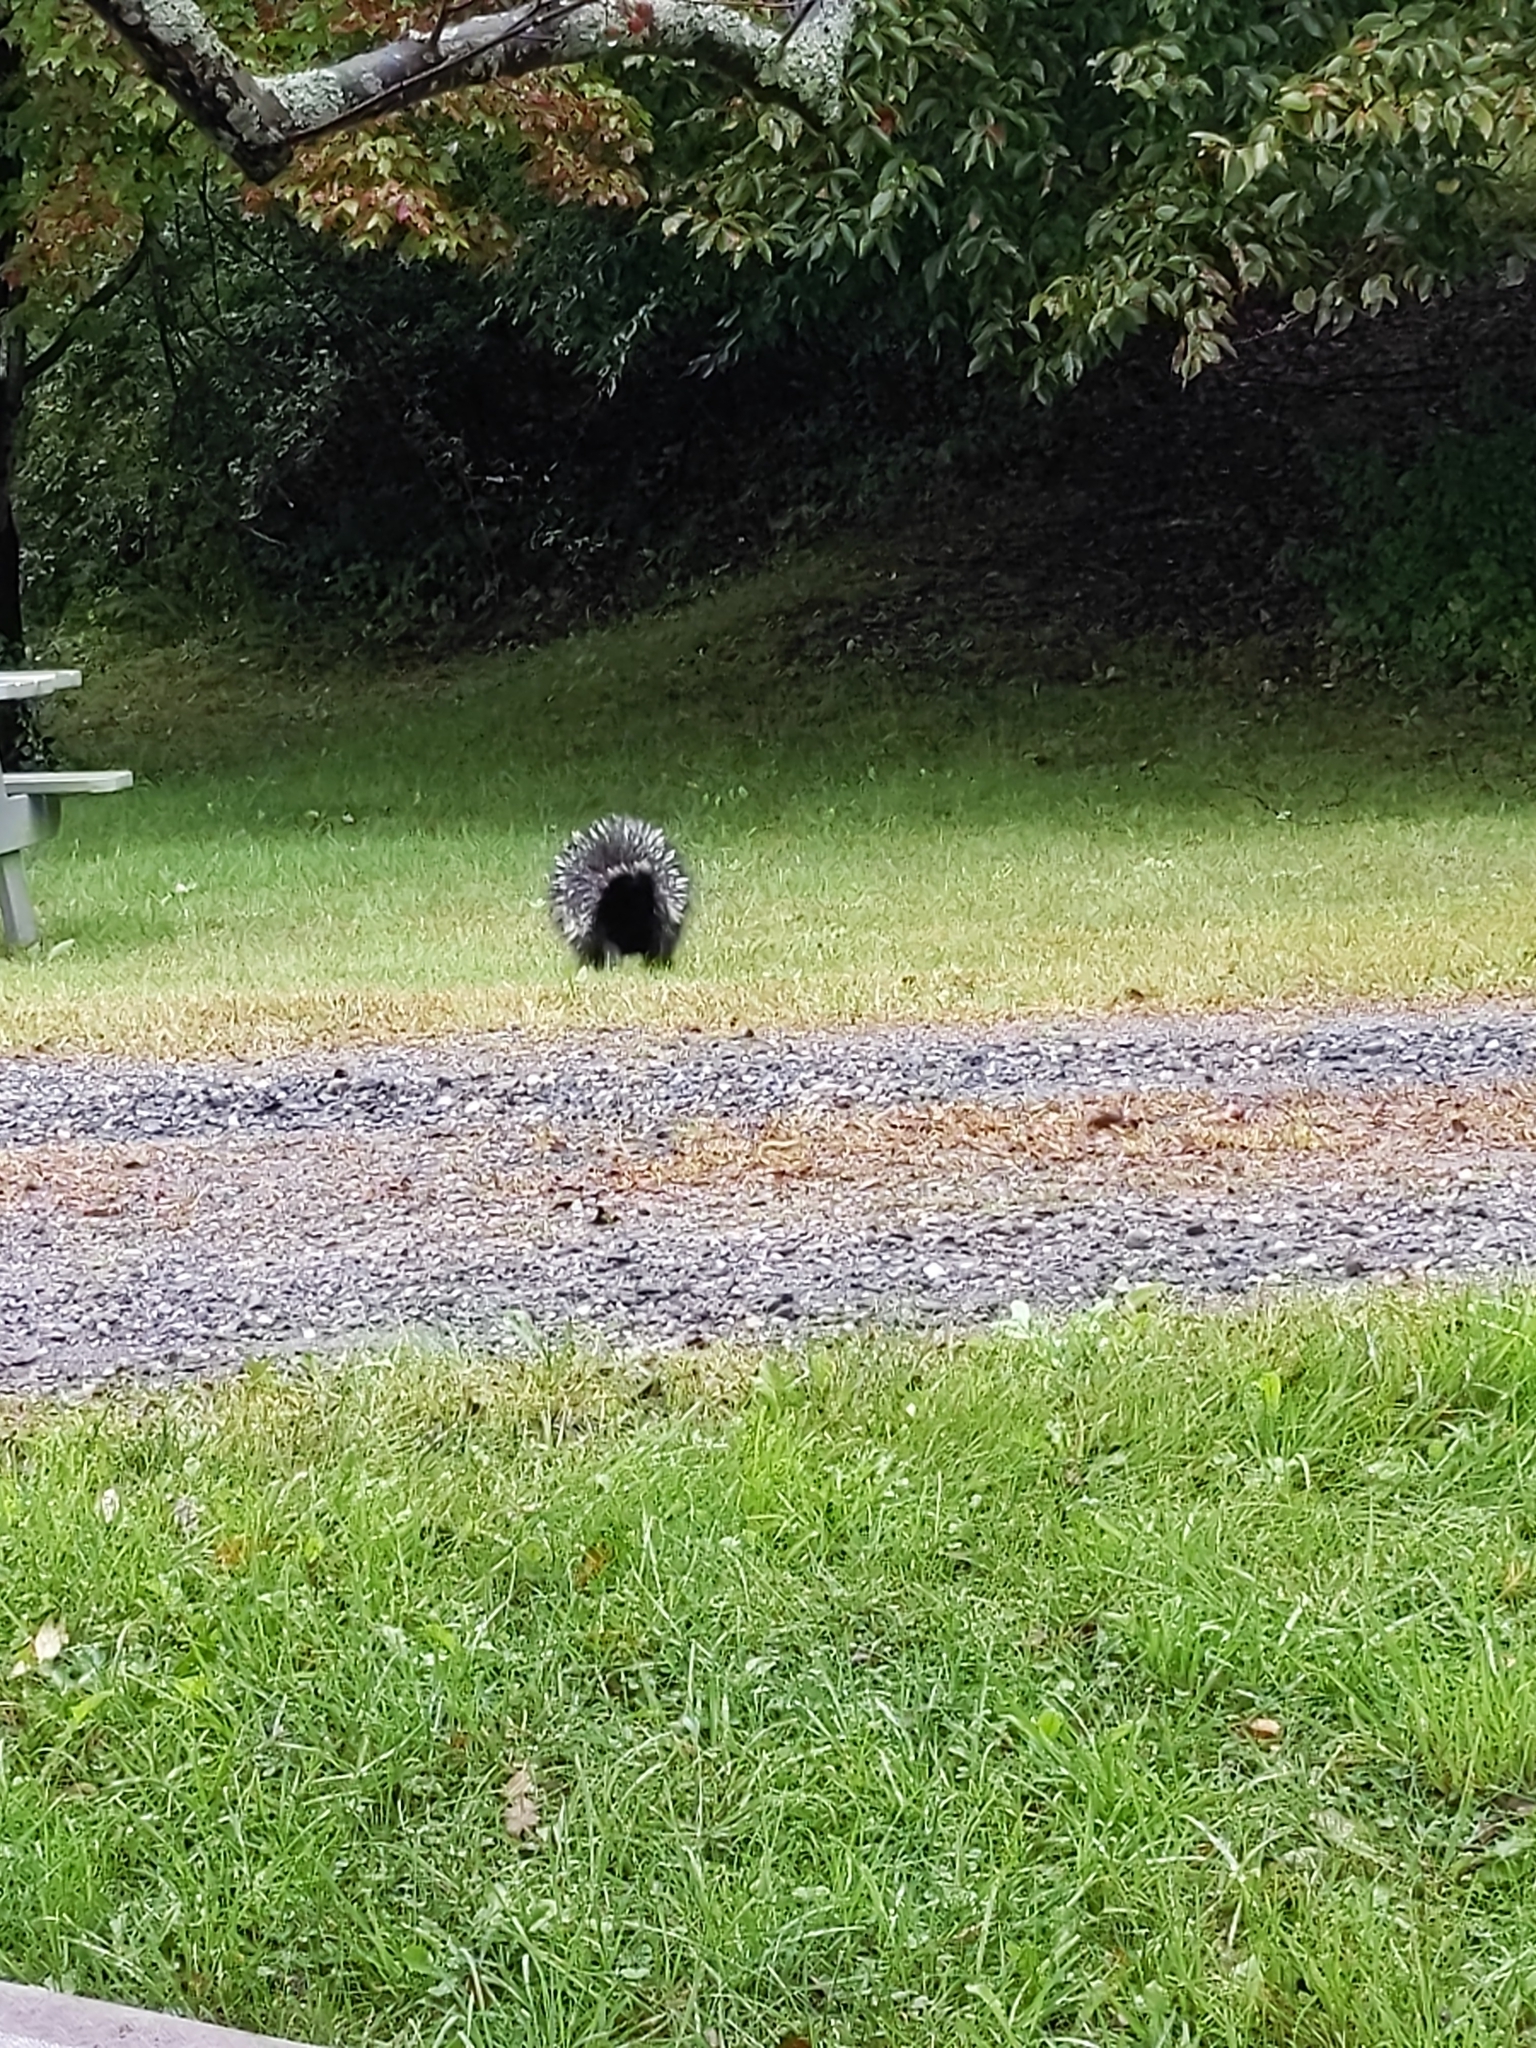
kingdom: Animalia
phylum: Chordata
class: Mammalia
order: Rodentia
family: Erethizontidae
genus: Erethizon
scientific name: Erethizon dorsatus
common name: North american porcupine
